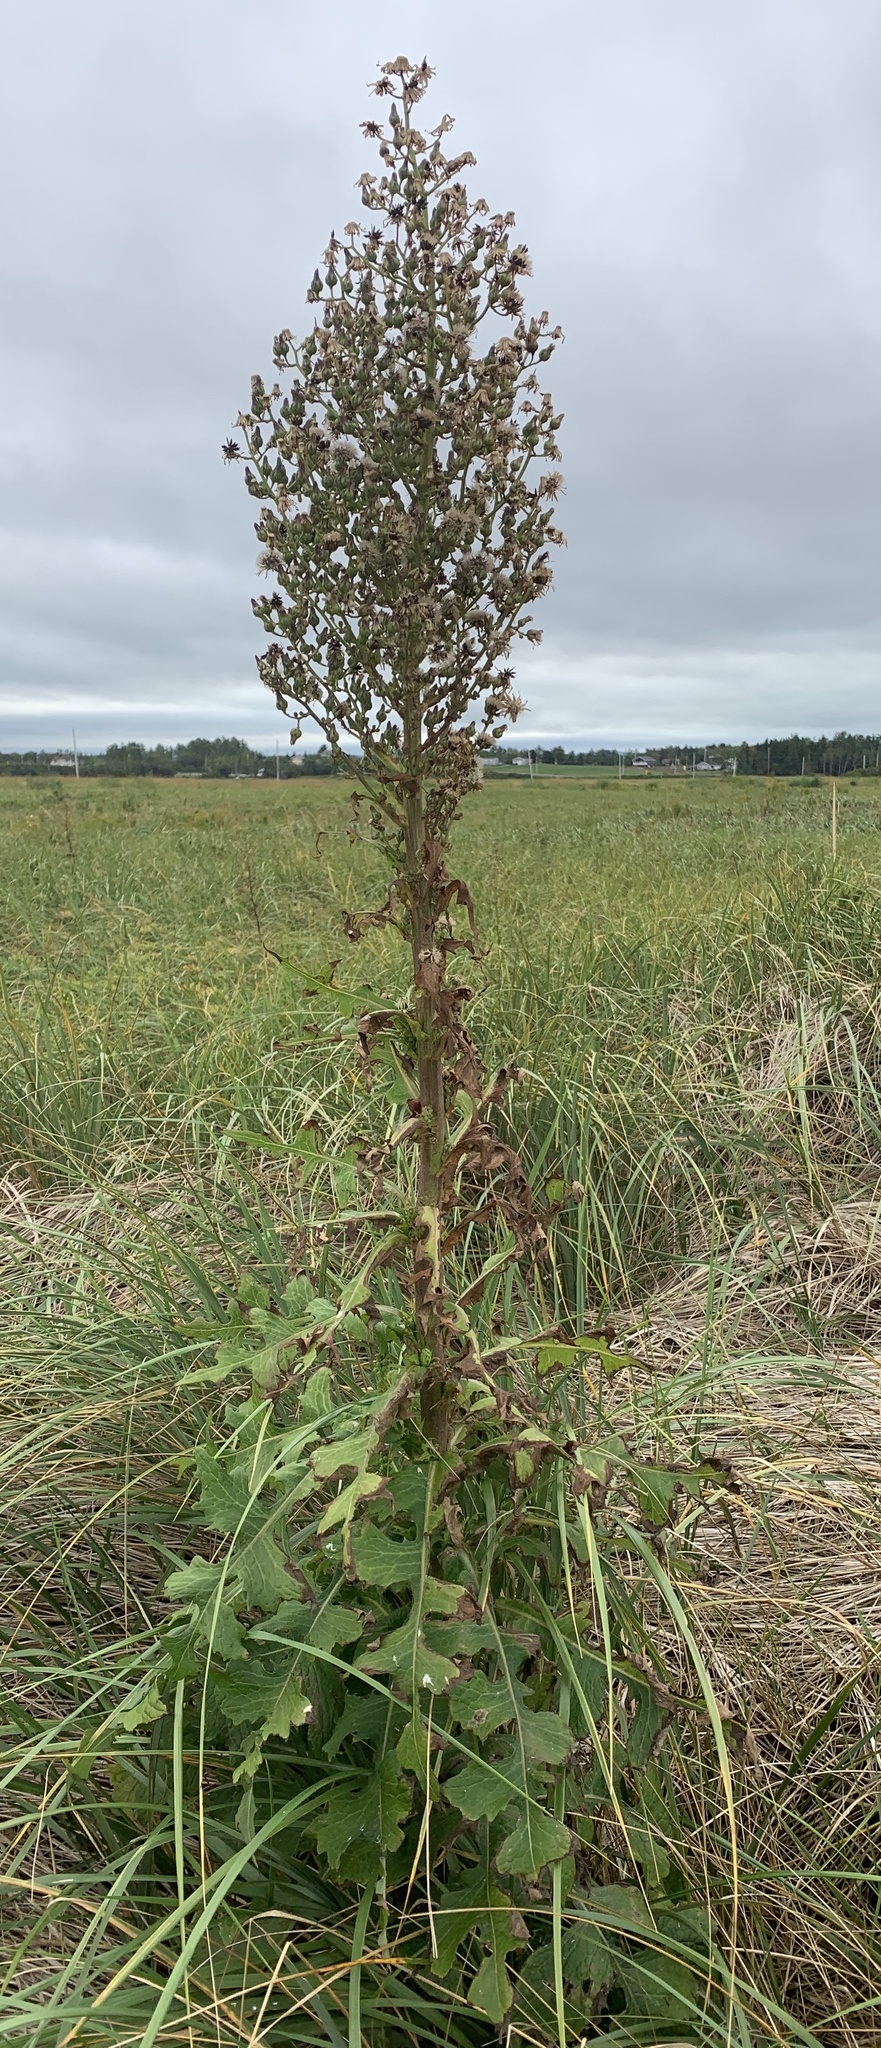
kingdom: Plantae
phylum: Tracheophyta
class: Magnoliopsida
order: Asterales
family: Asteraceae
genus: Lactuca
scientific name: Lactuca biennis
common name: Blue wood lettuce
